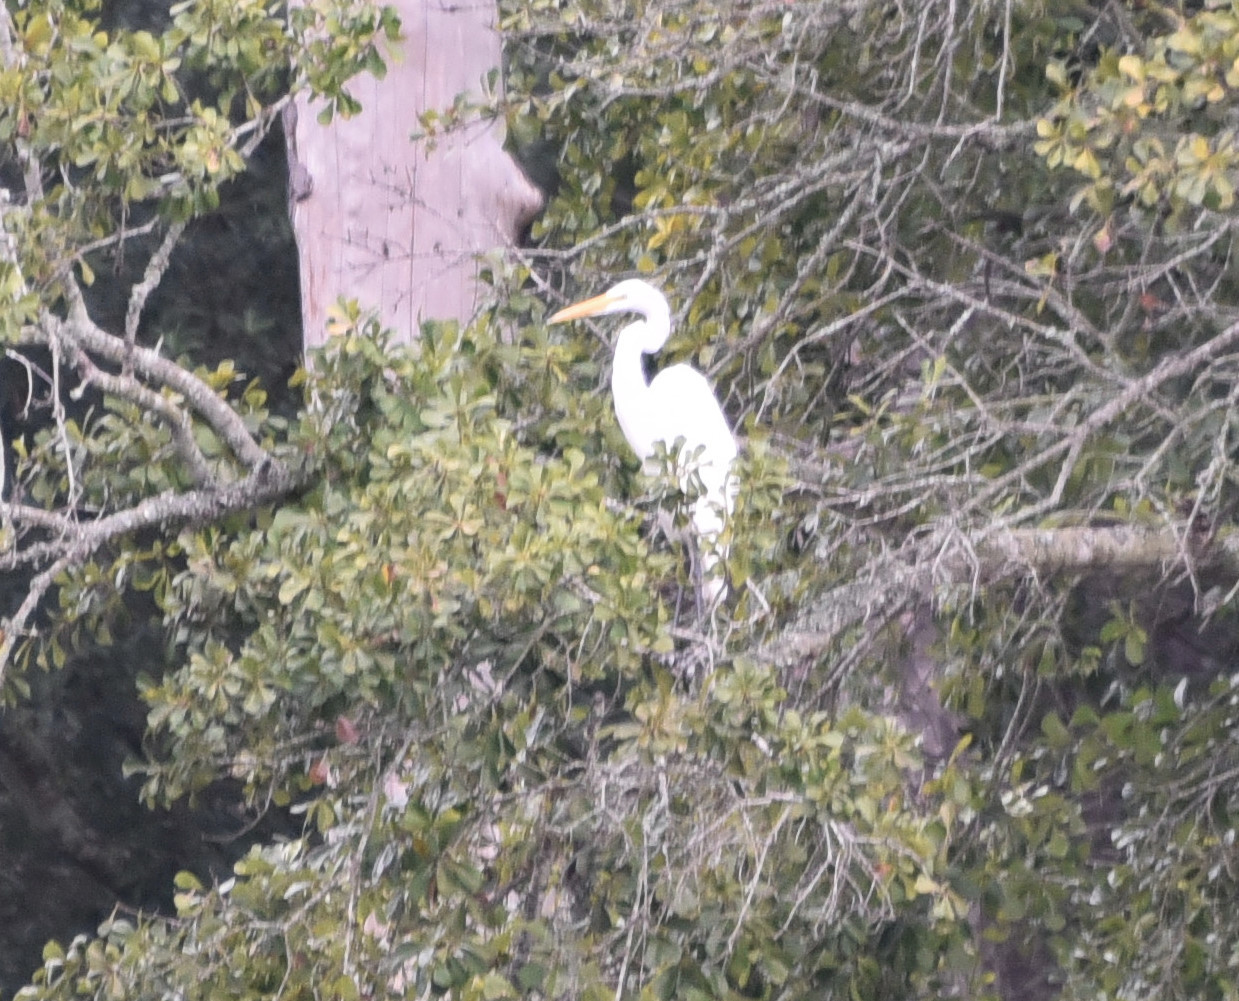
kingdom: Animalia
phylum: Chordata
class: Aves
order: Pelecaniformes
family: Ardeidae
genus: Ardea
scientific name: Ardea alba
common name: Great egret
